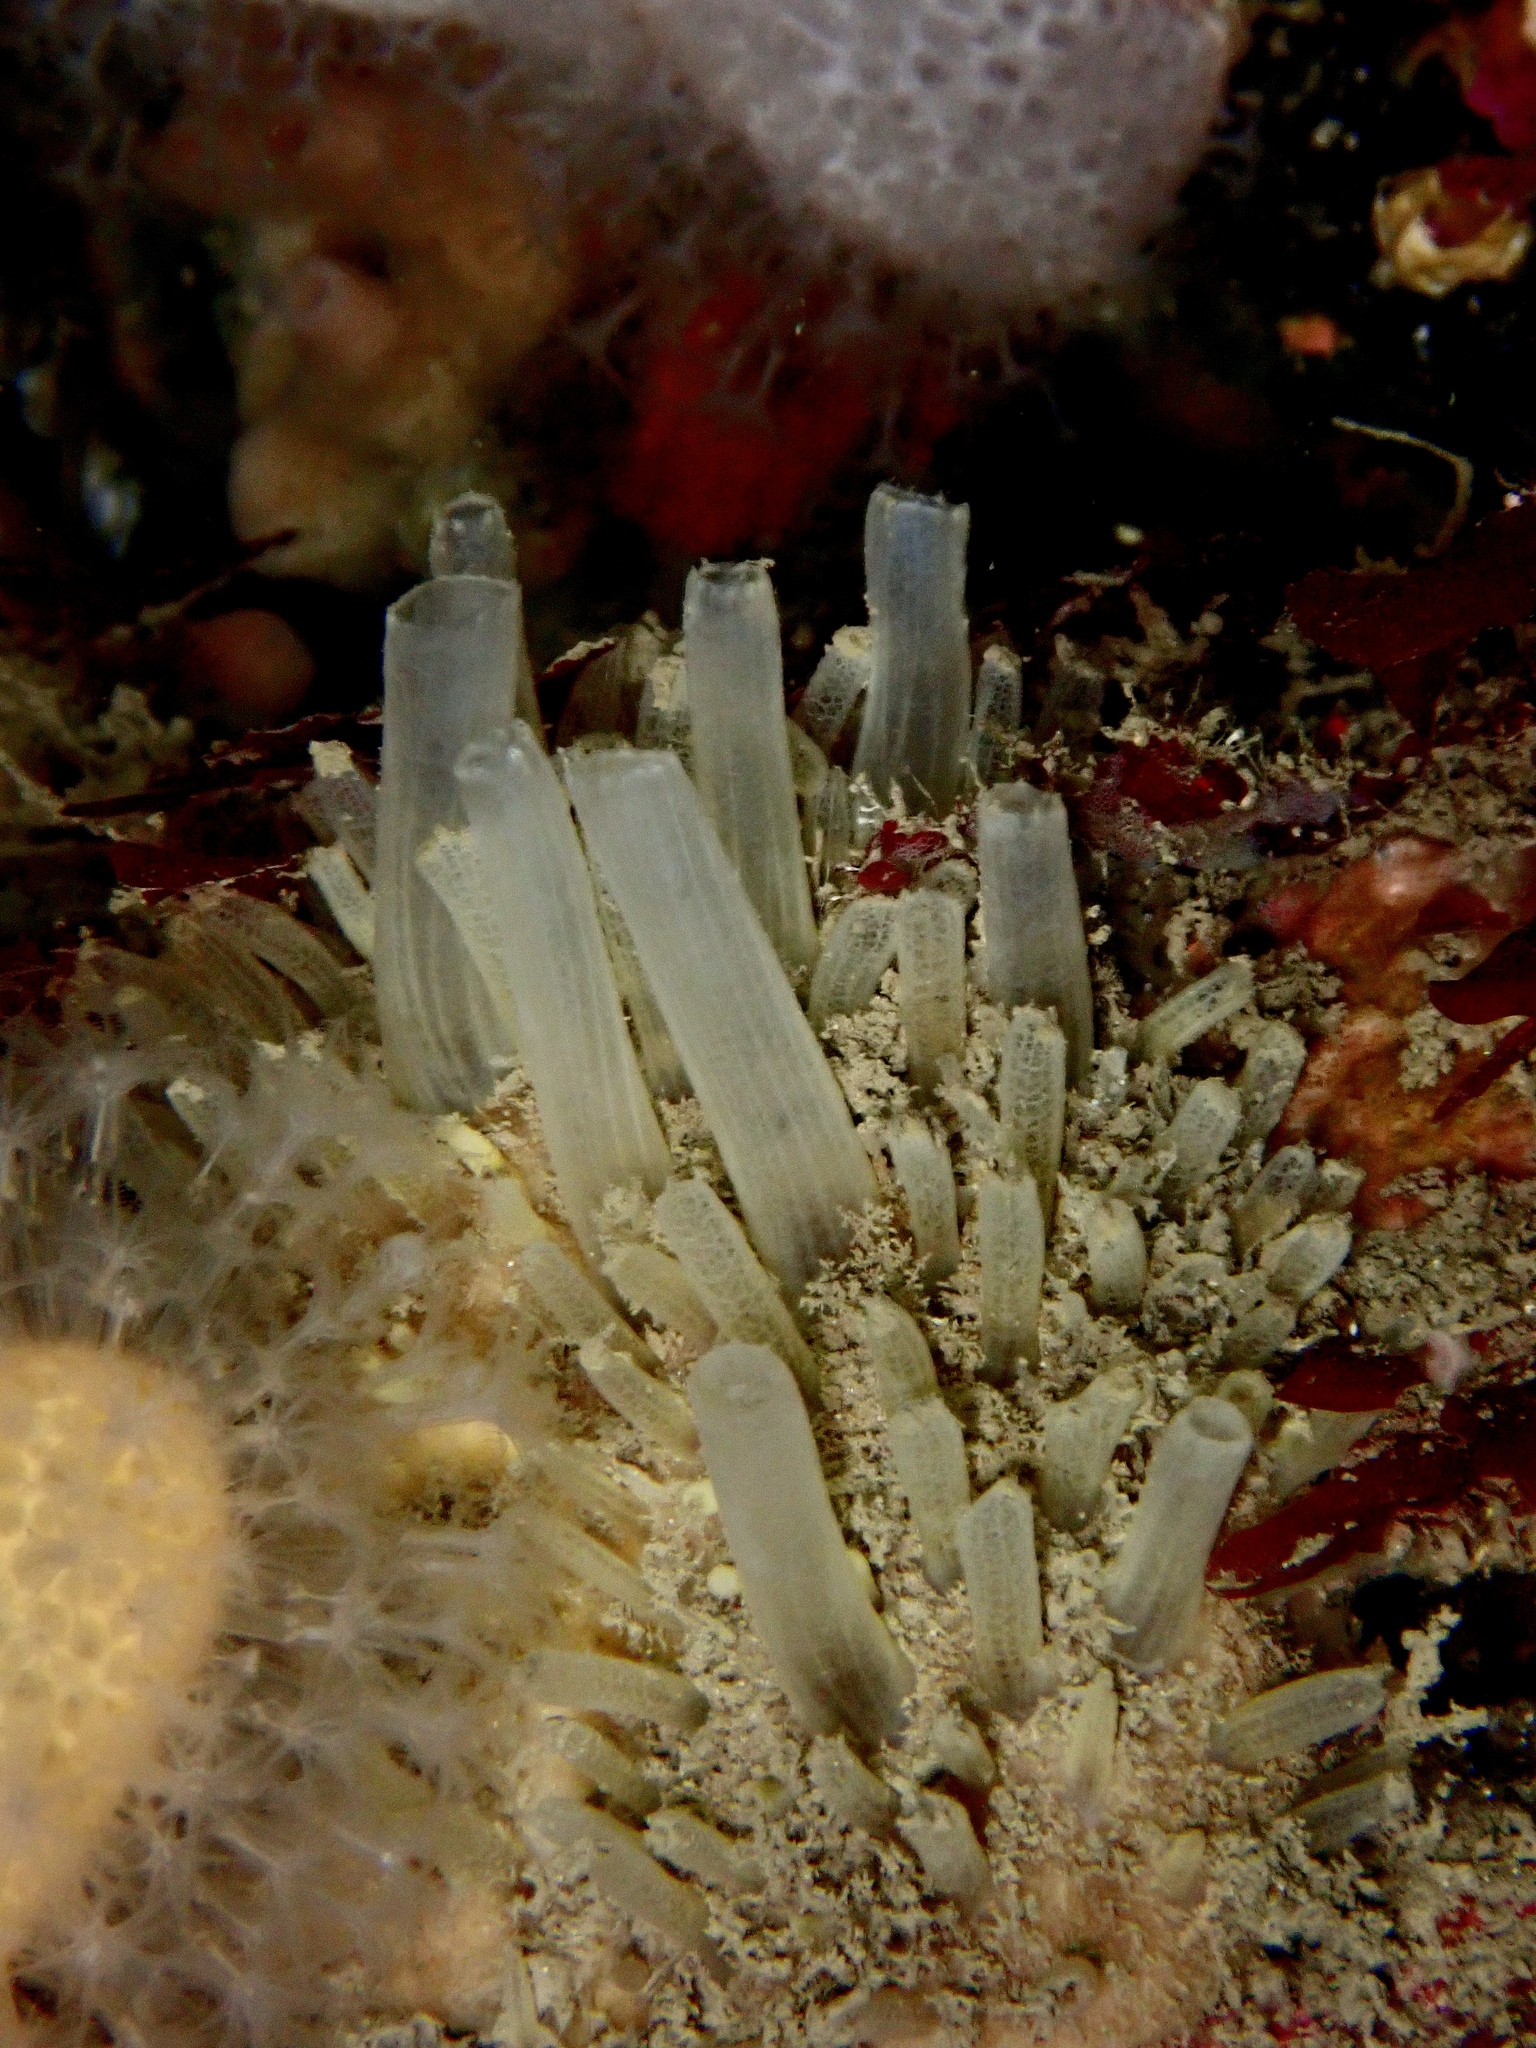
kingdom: Animalia
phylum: Porifera
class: Demospongiae
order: Polymastiida
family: Polymastiidae
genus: Polymastia
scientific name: Polymastia penicillus
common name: Chimney sponge
